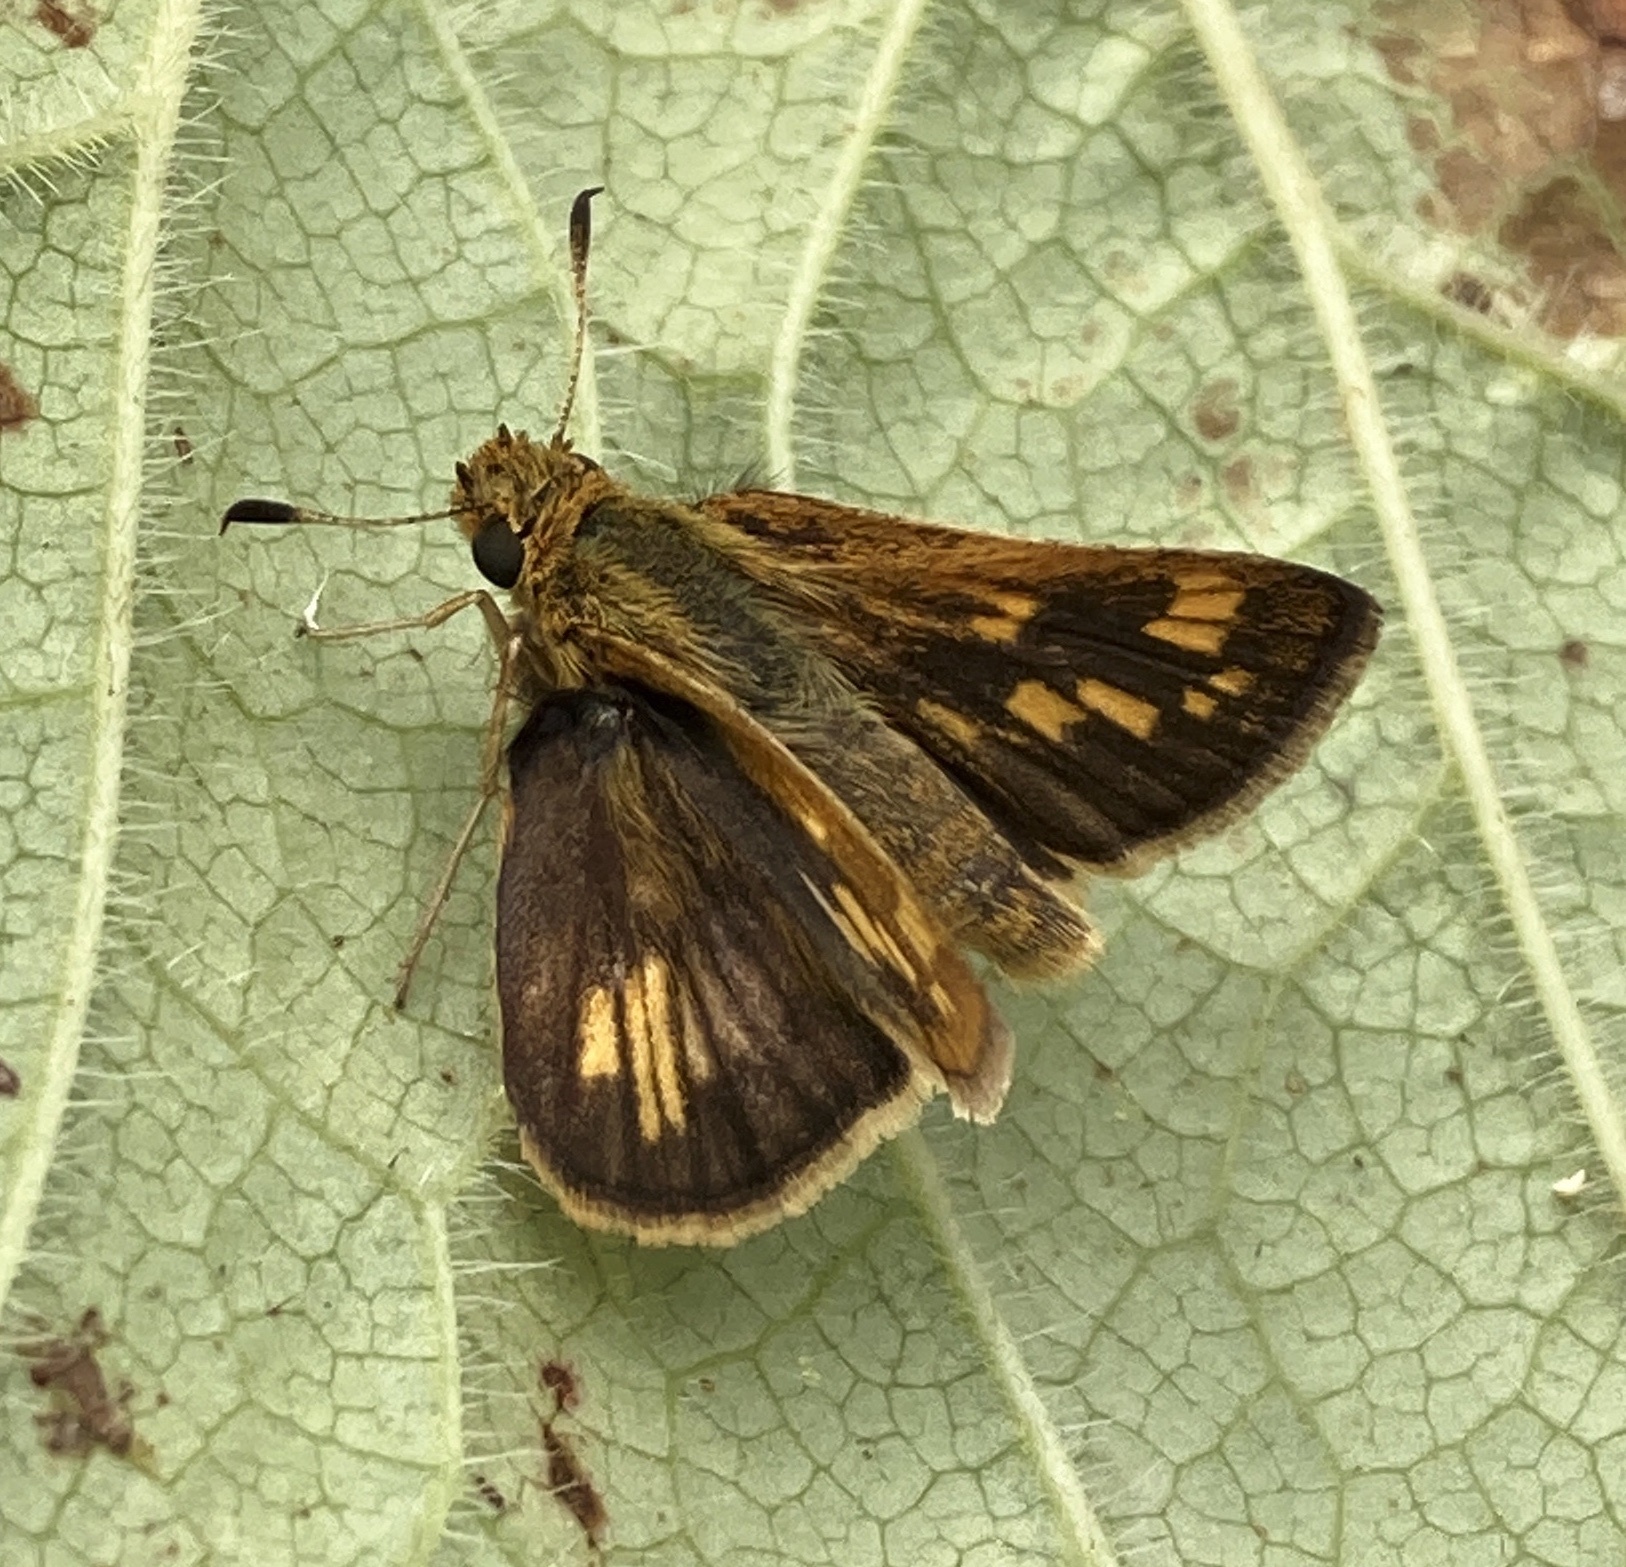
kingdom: Animalia
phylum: Arthropoda
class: Insecta
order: Lepidoptera
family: Hesperiidae
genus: Polites
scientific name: Polites coras
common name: Peck's skipper
